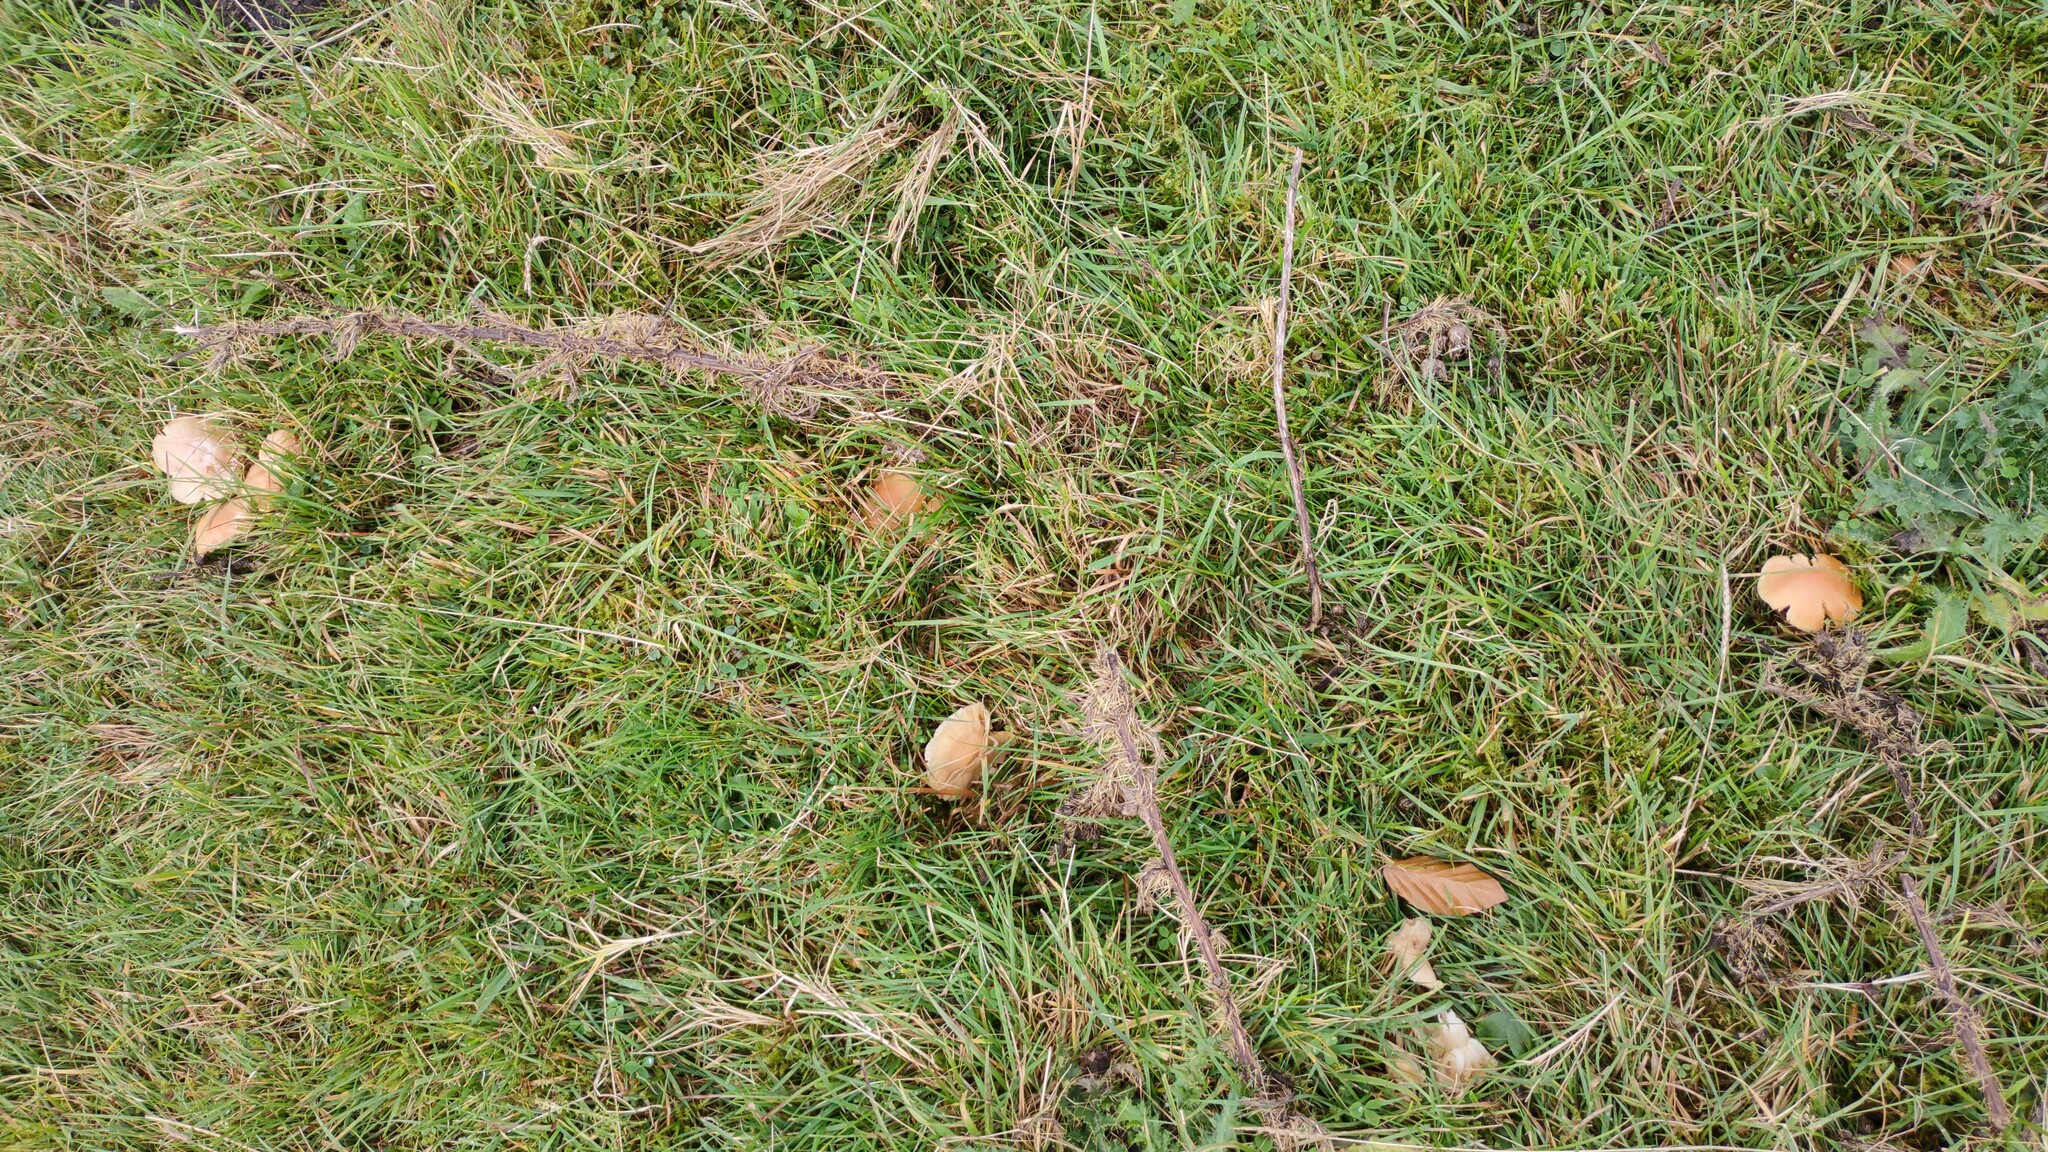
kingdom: Fungi
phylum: Basidiomycota
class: Agaricomycetes
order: Agaricales
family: Hygrophoraceae
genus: Cuphophyllus
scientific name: Cuphophyllus pratensis
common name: Meadow waxcap
